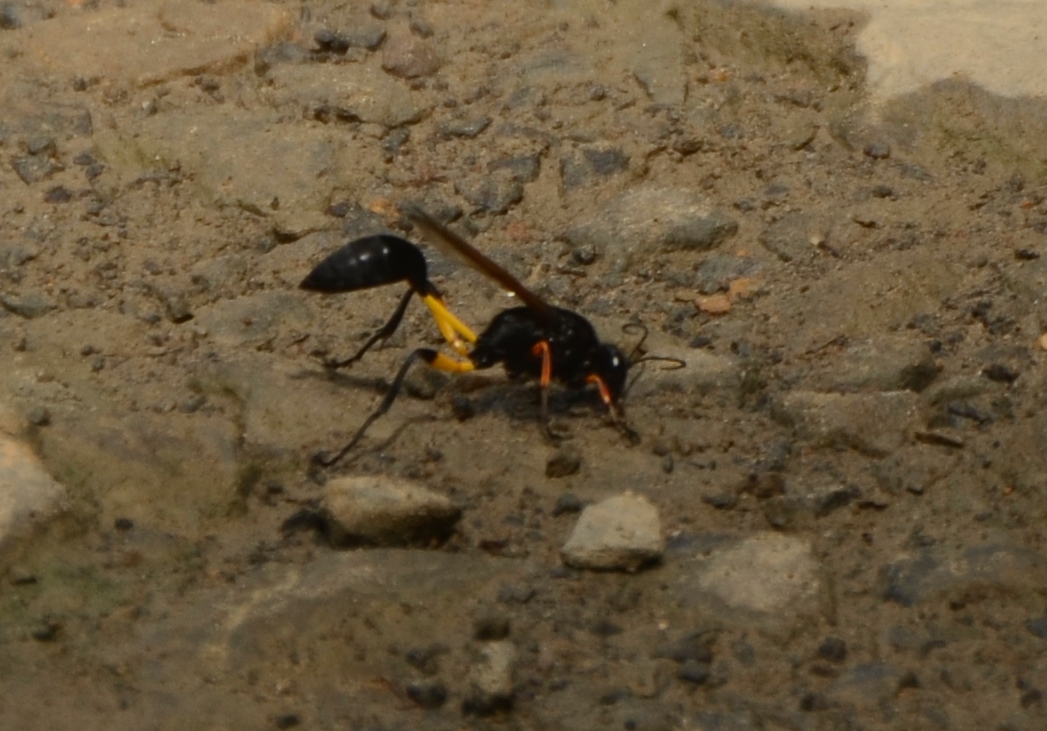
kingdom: Animalia
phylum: Arthropoda
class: Insecta
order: Hymenoptera
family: Sphecidae
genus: Sceliphron
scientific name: Sceliphron javanum
